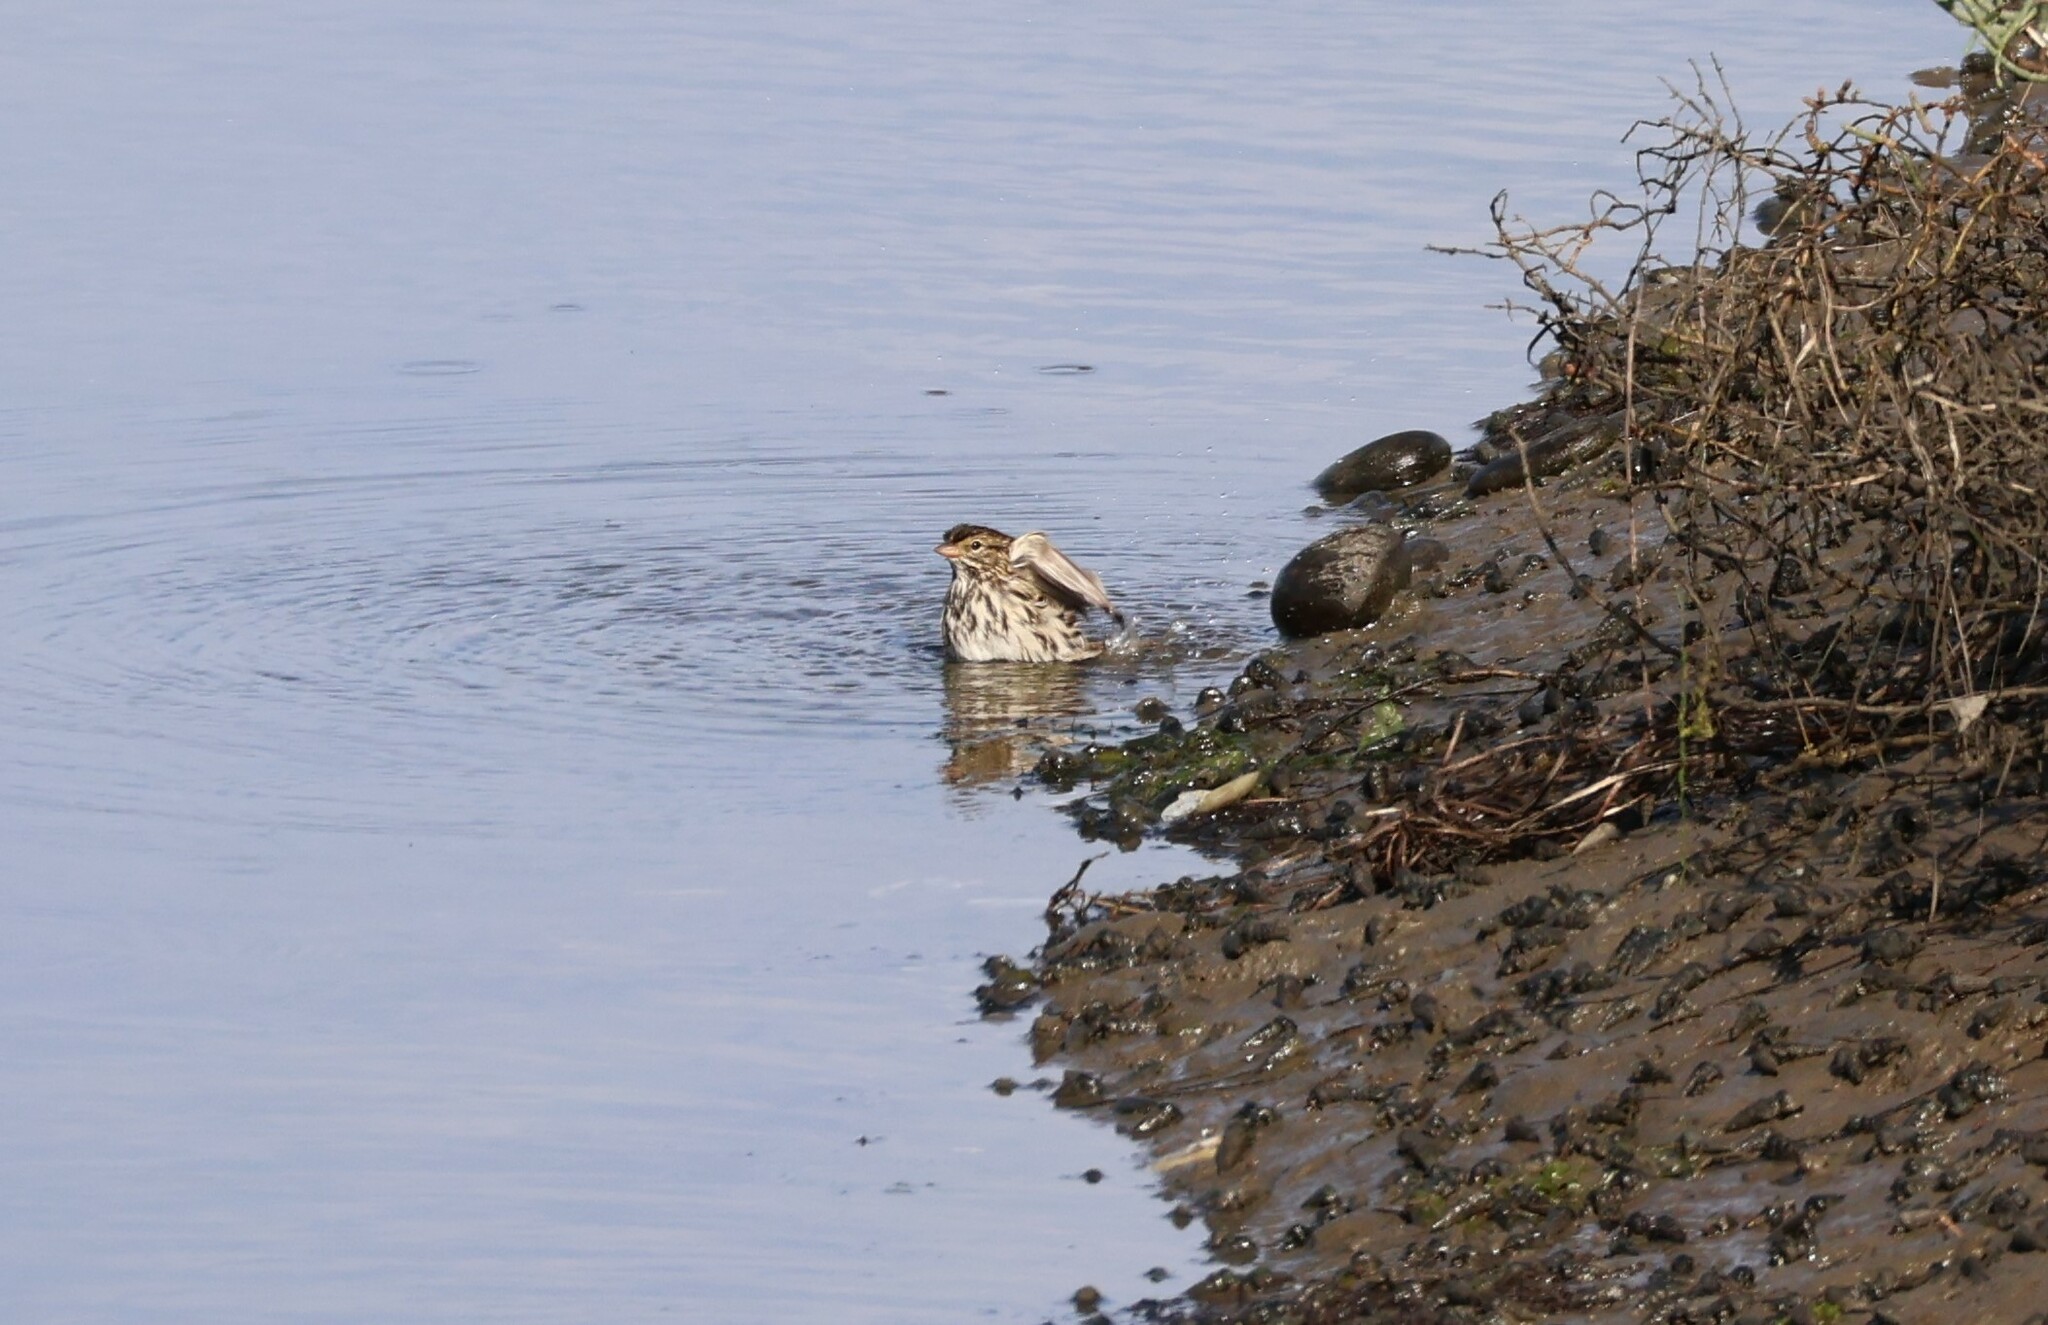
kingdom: Animalia
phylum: Chordata
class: Aves
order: Passeriformes
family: Passerellidae
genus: Passerculus
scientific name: Passerculus sandwichensis
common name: Savannah sparrow
